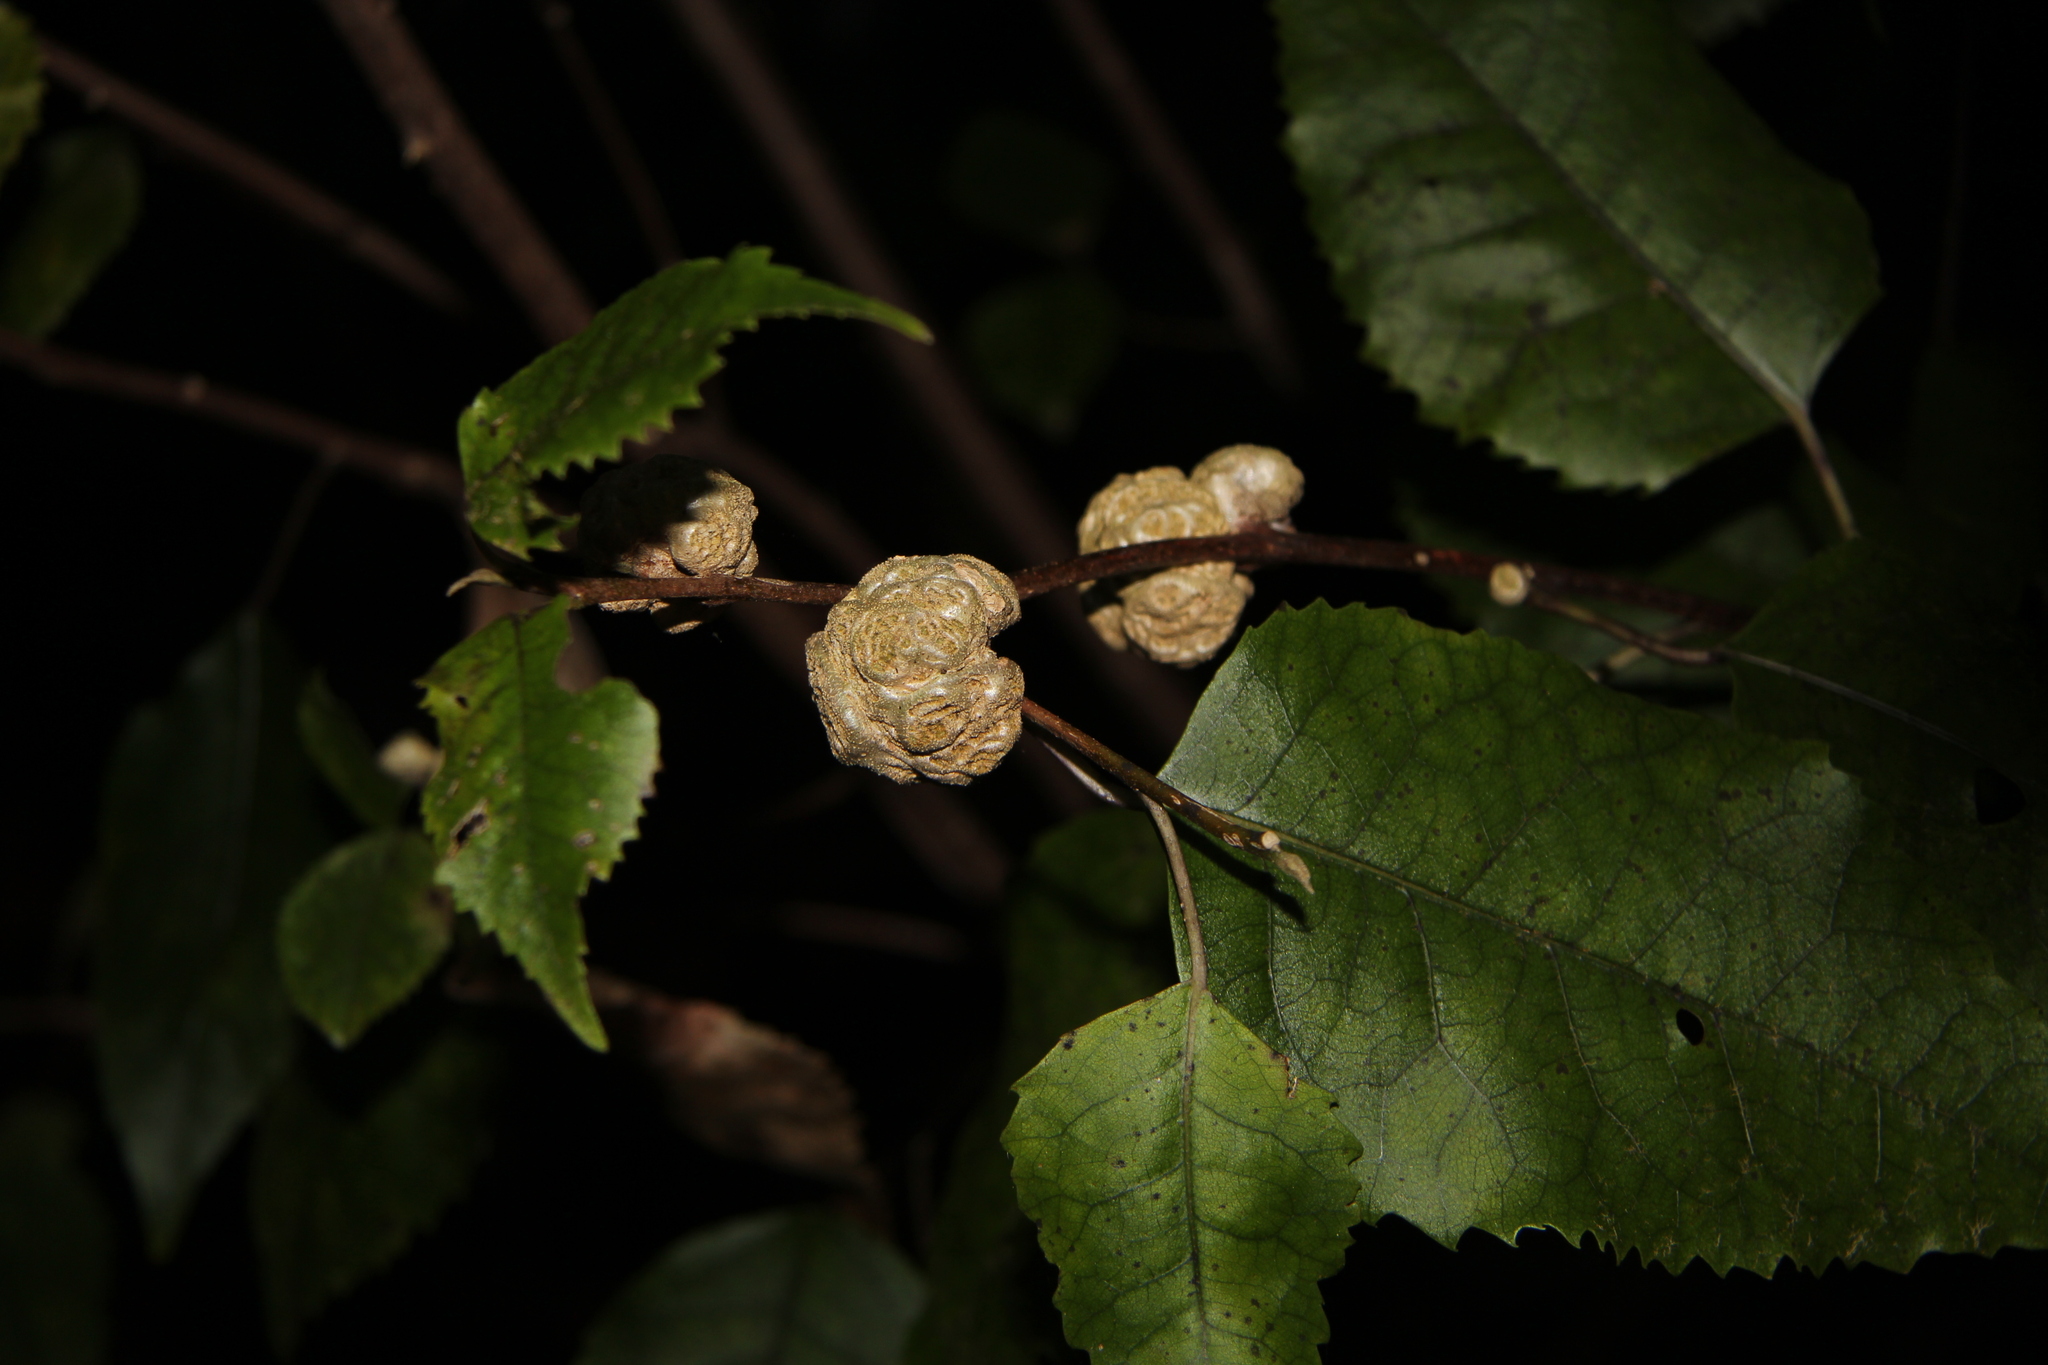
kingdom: Animalia
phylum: Arthropoda
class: Arachnida
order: Trombidiformes
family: Eriophyidae
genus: Eriophyes
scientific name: Eriophyes hoheriae
